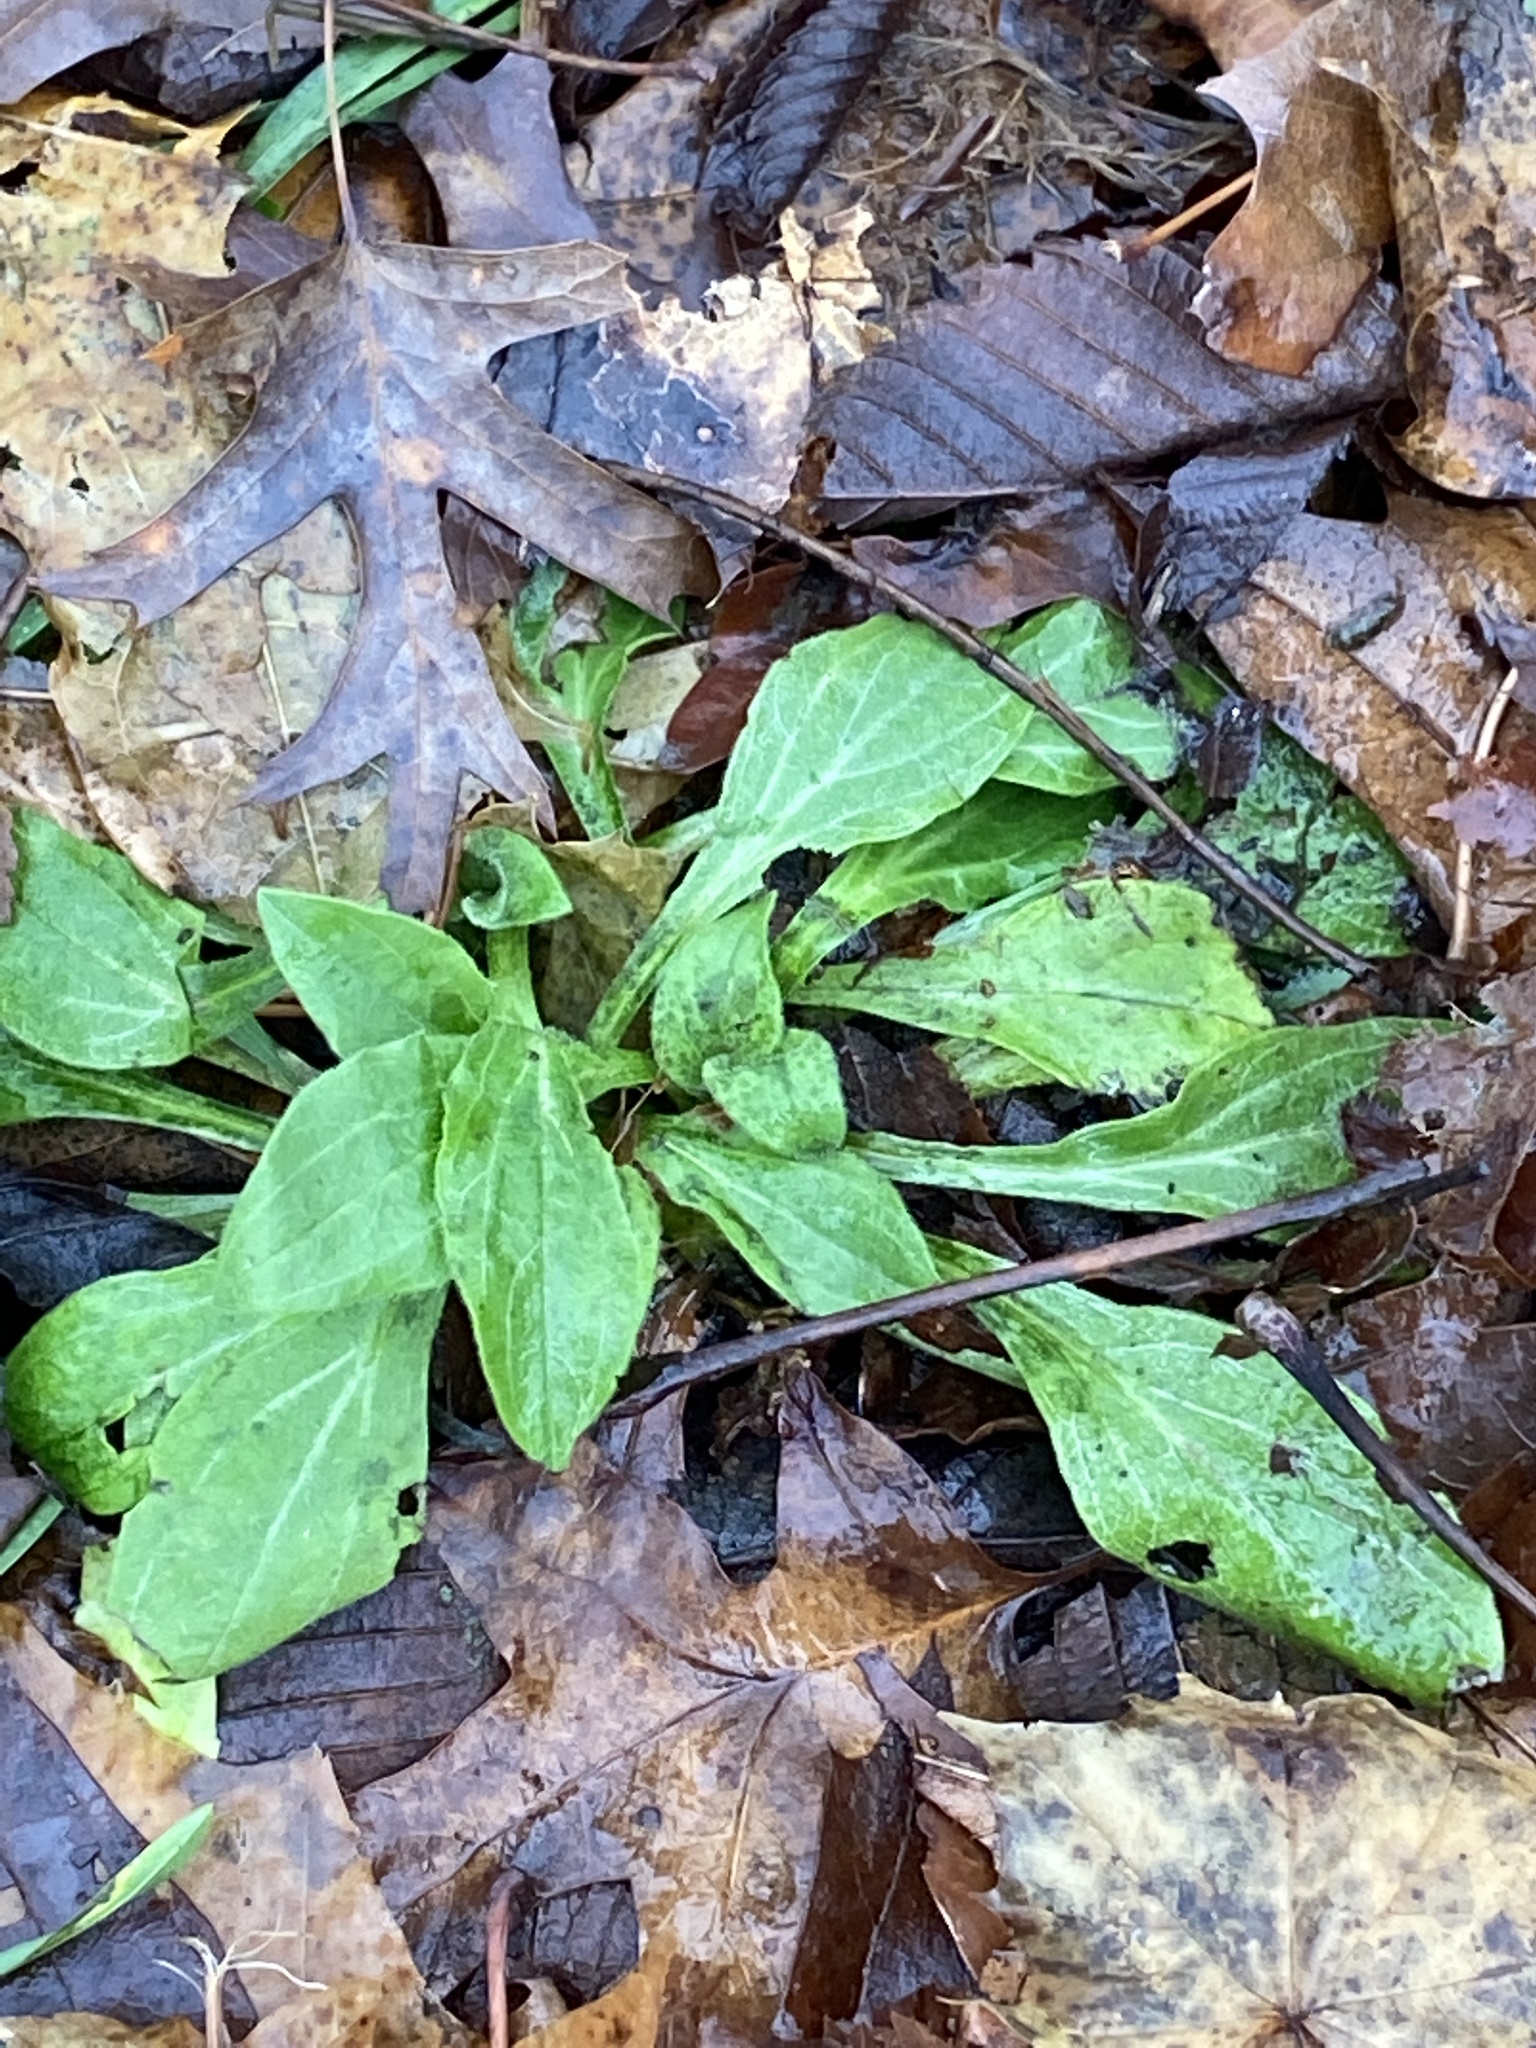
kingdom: Plantae
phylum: Tracheophyta
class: Magnoliopsida
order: Caryophyllales
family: Caryophyllaceae
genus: Silene
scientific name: Silene latifolia
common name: White campion
